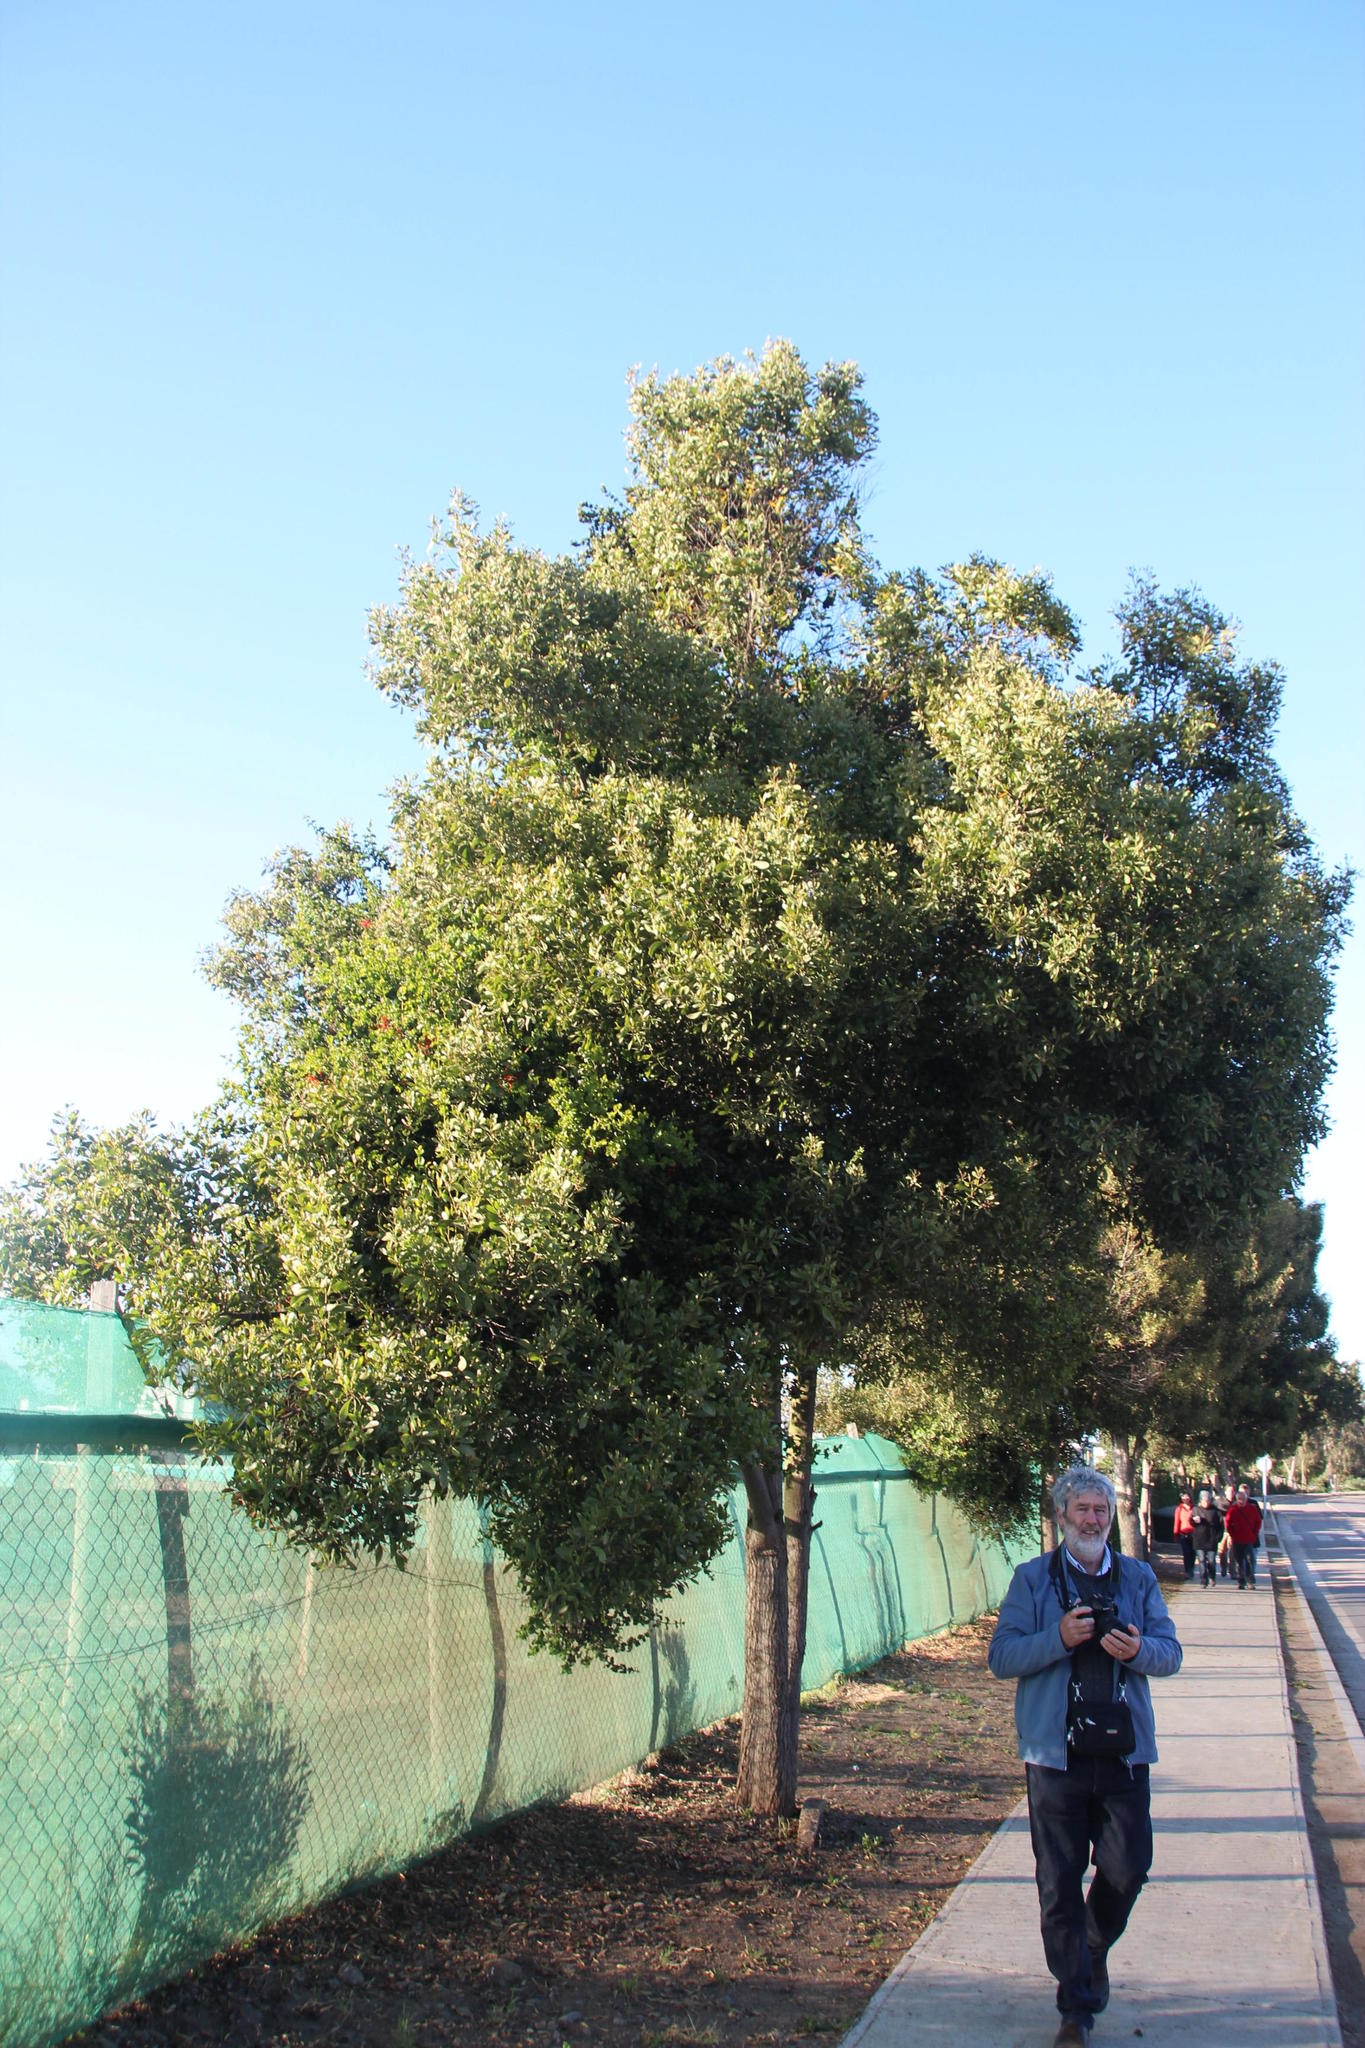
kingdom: Plantae
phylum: Tracheophyta
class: Magnoliopsida
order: Fabales
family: Fabaceae
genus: Acacia
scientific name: Acacia melanoxylon
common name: Blackwood
